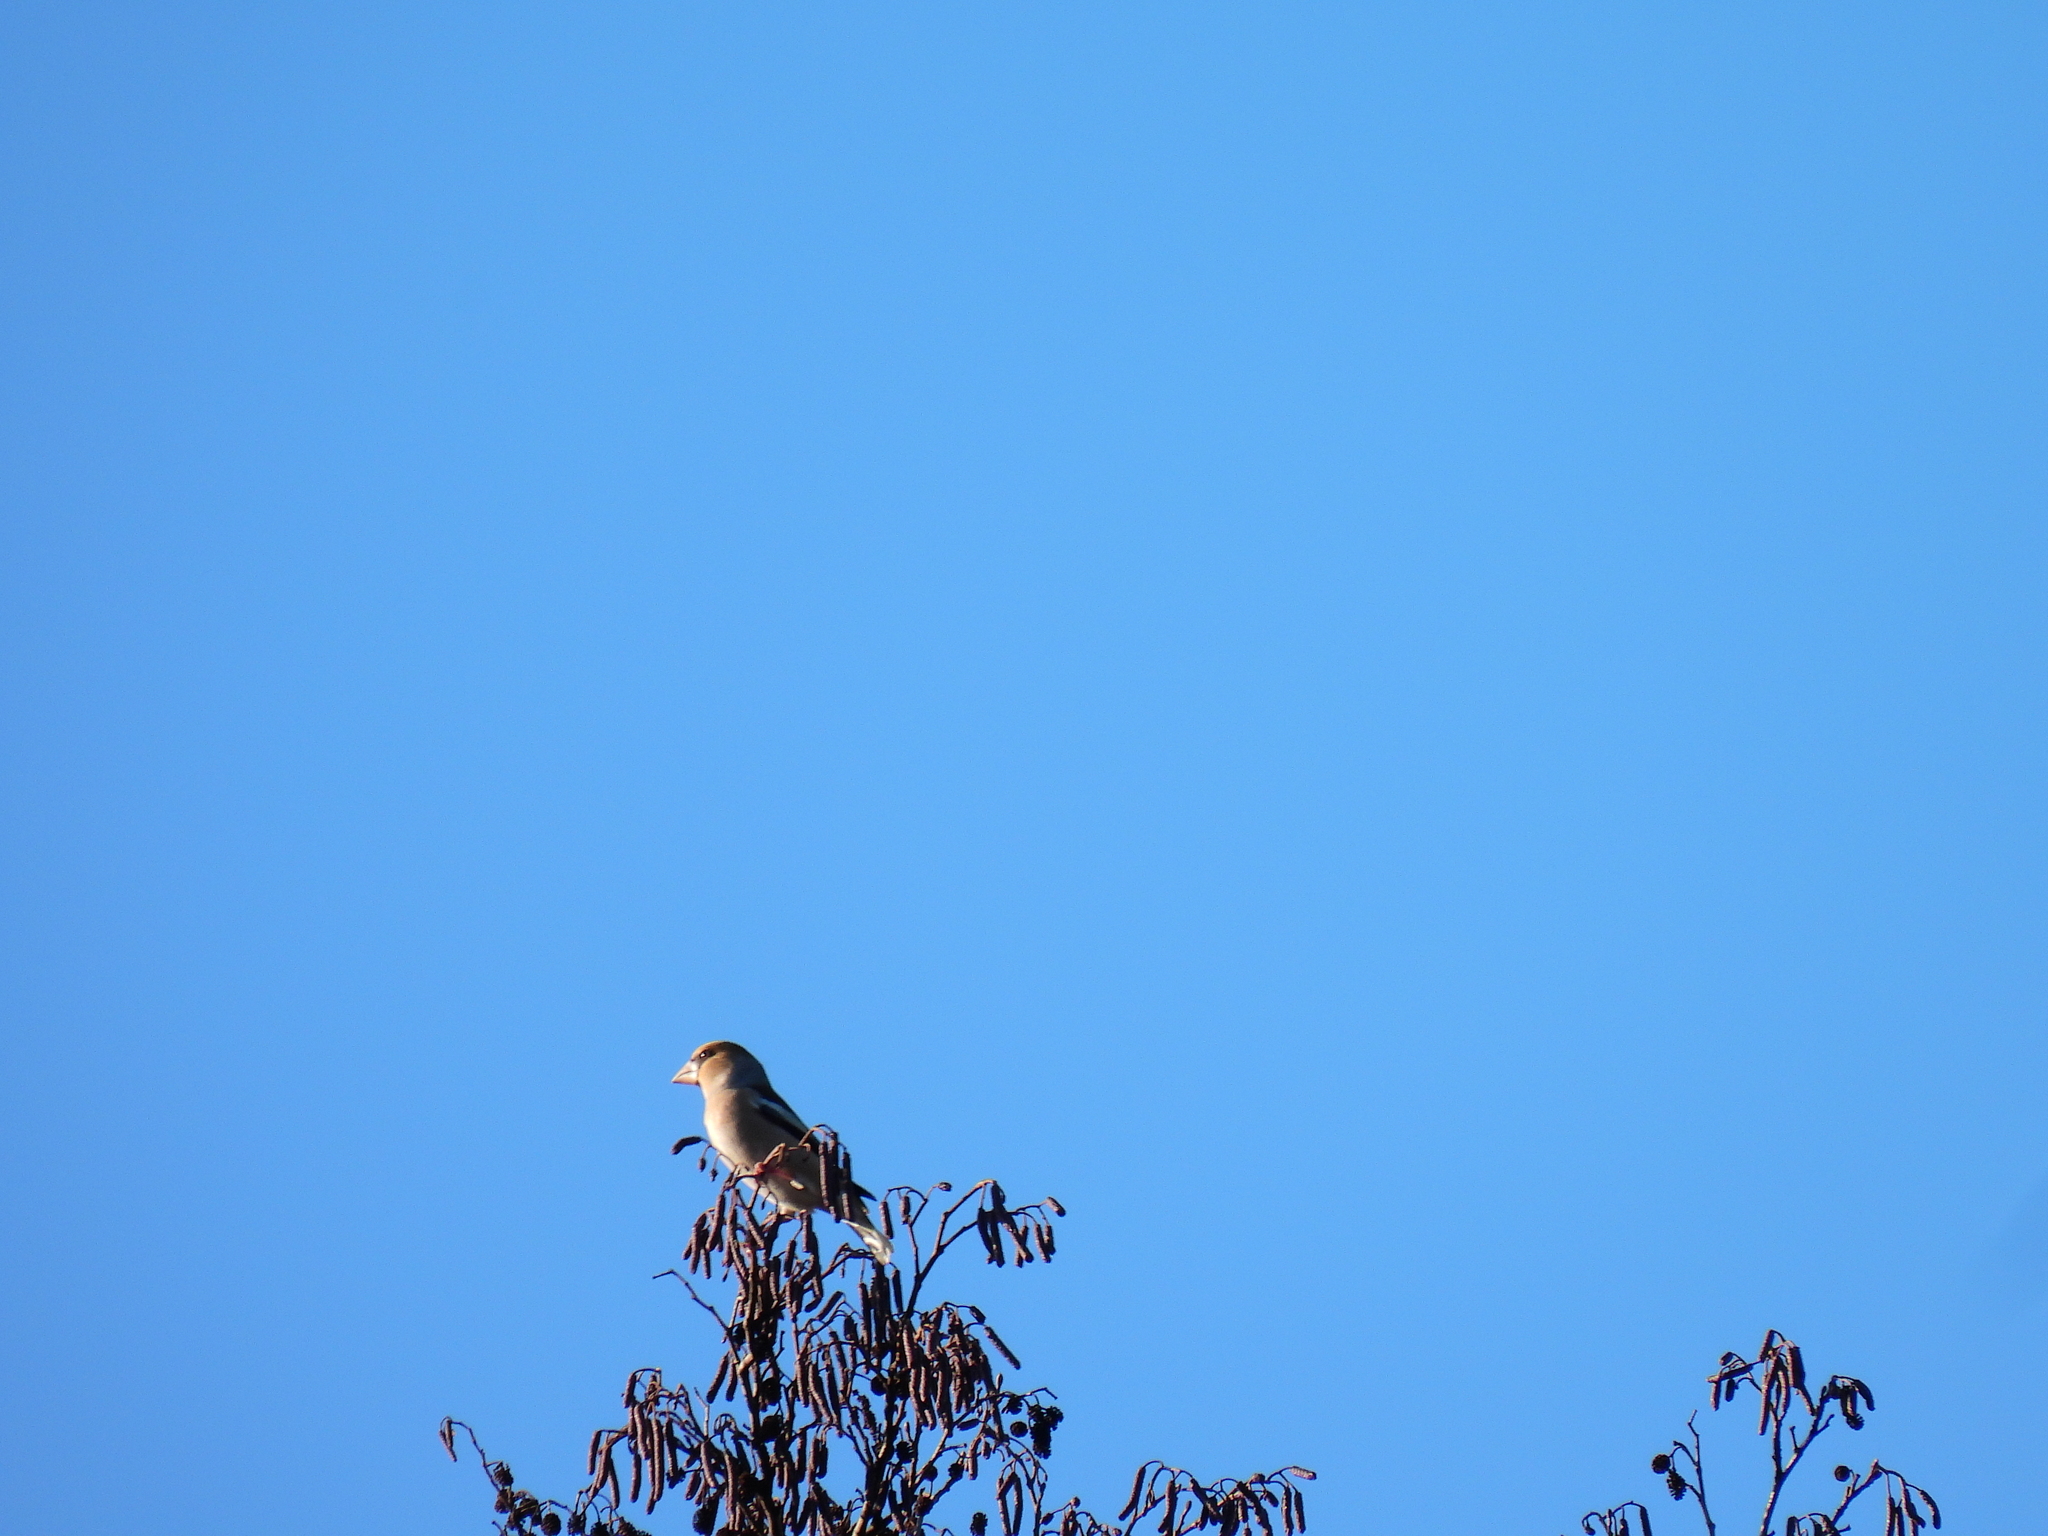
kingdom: Animalia
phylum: Chordata
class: Aves
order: Passeriformes
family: Fringillidae
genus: Coccothraustes
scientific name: Coccothraustes coccothraustes
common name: Hawfinch
